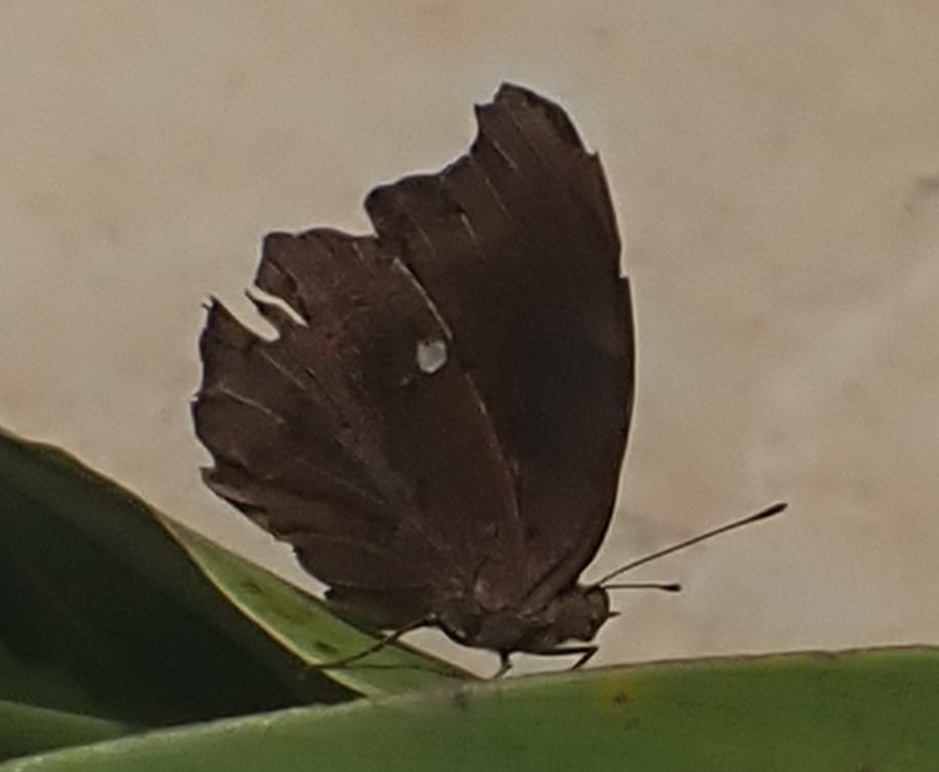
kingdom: Animalia
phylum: Arthropoda
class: Insecta
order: Lepidoptera
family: Nymphalidae
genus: Junonia
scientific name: Junonia iphita
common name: Chocolate pansy
